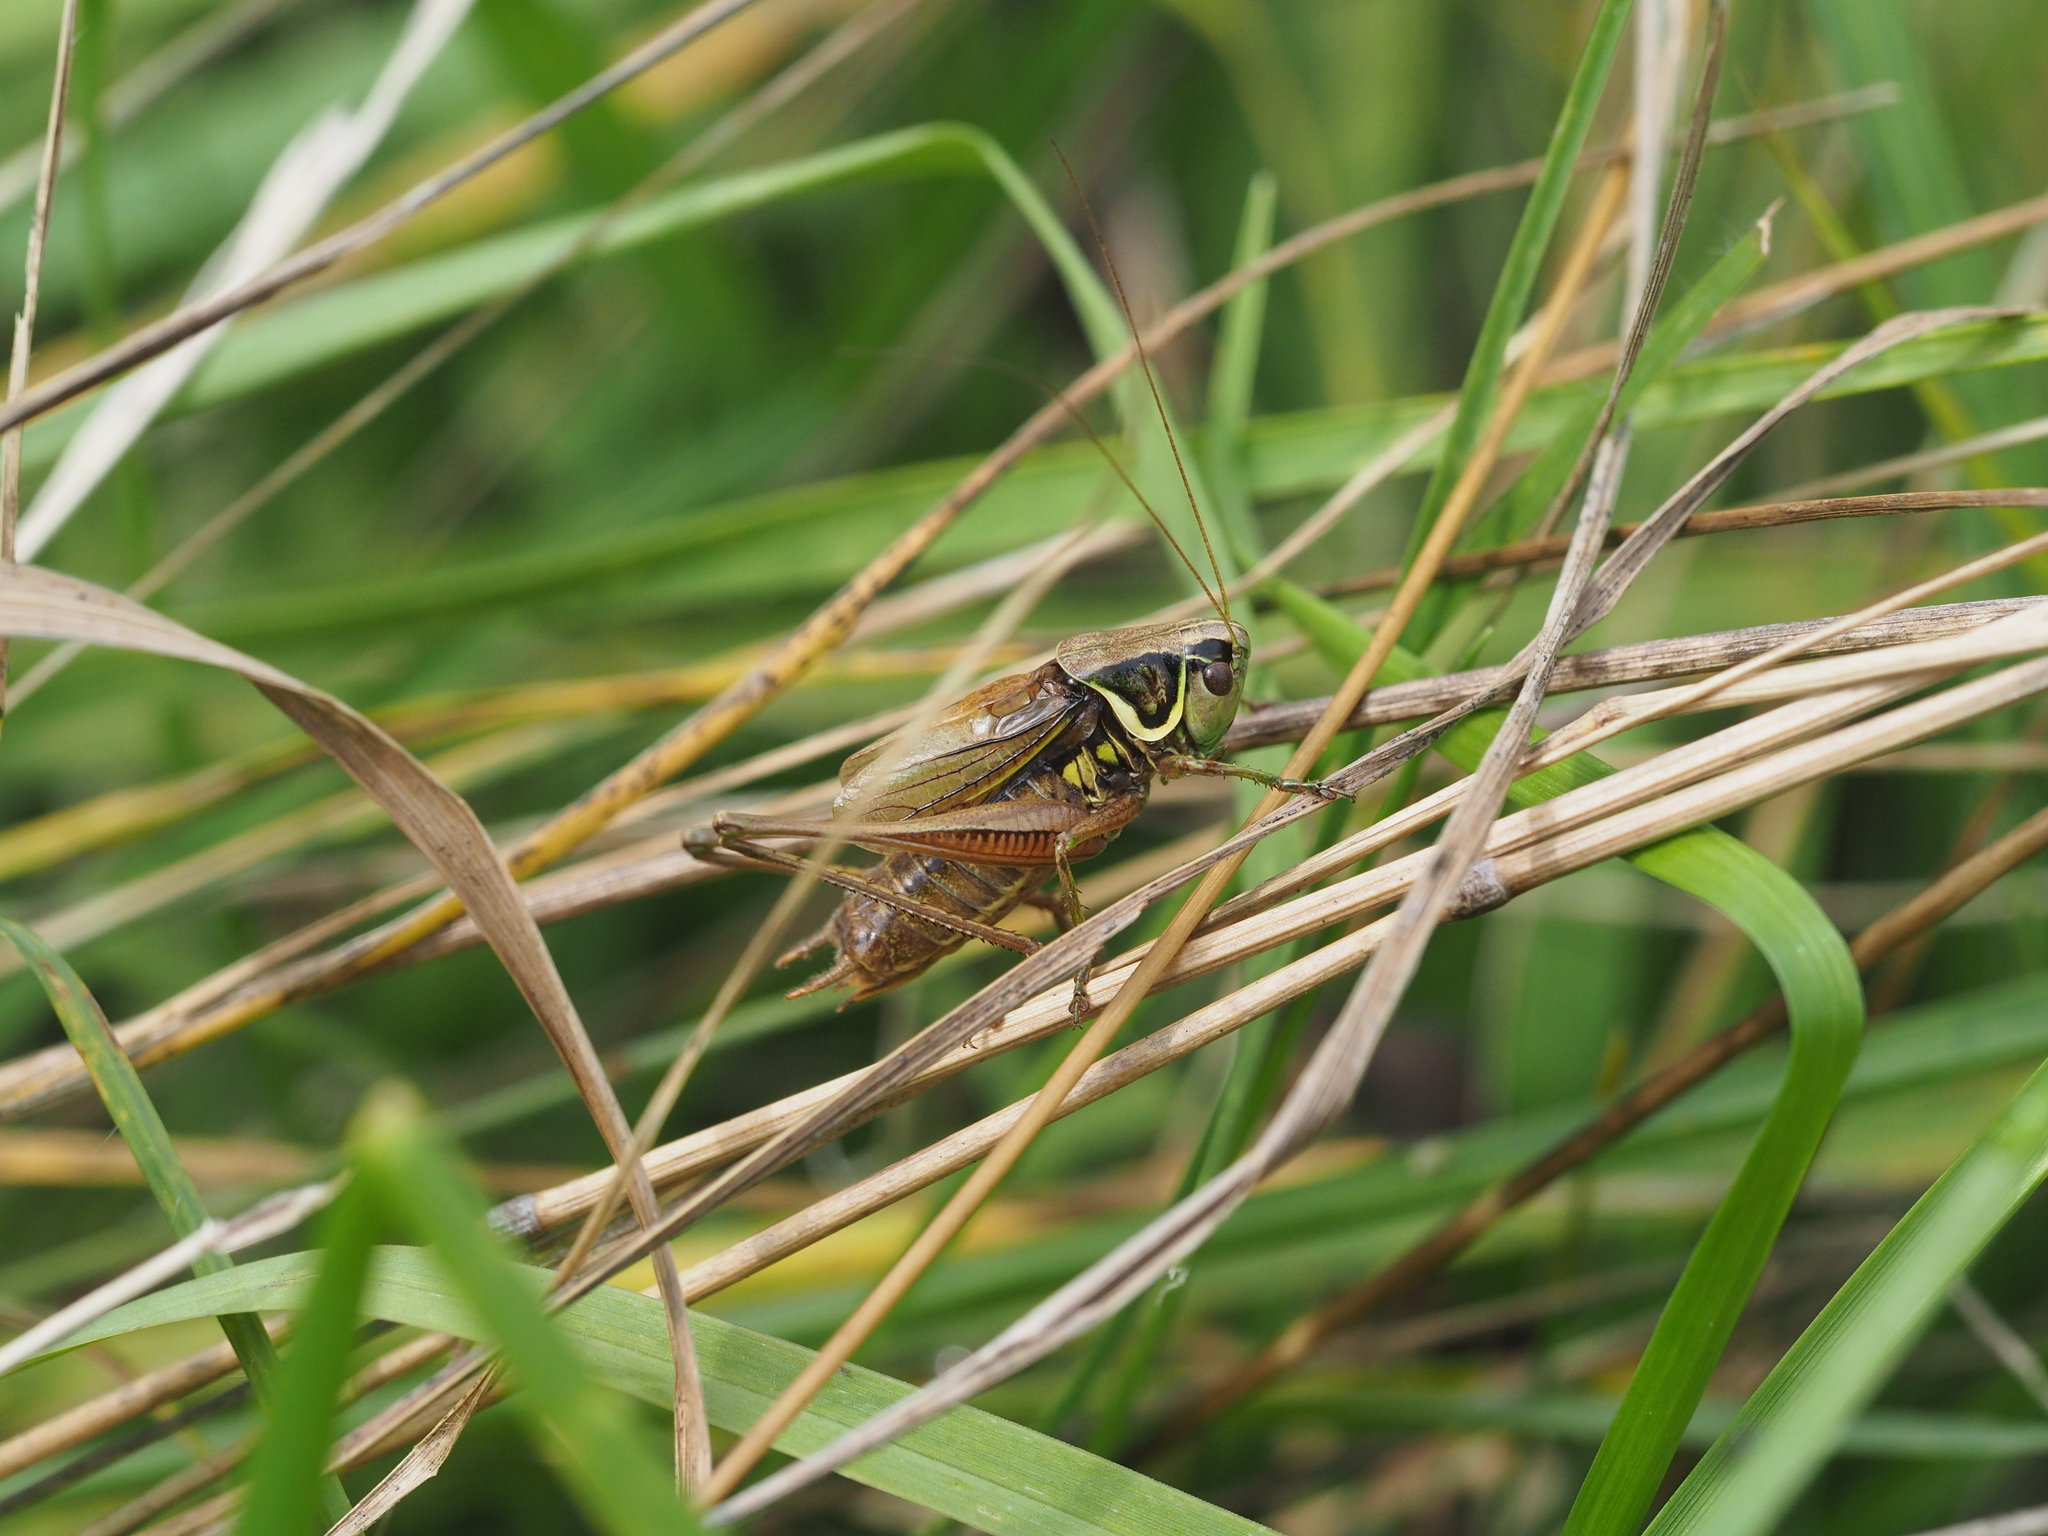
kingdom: Animalia
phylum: Arthropoda
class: Insecta
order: Orthoptera
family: Tettigoniidae
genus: Roeseliana
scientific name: Roeseliana roeselii
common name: Roesel's bush cricket
